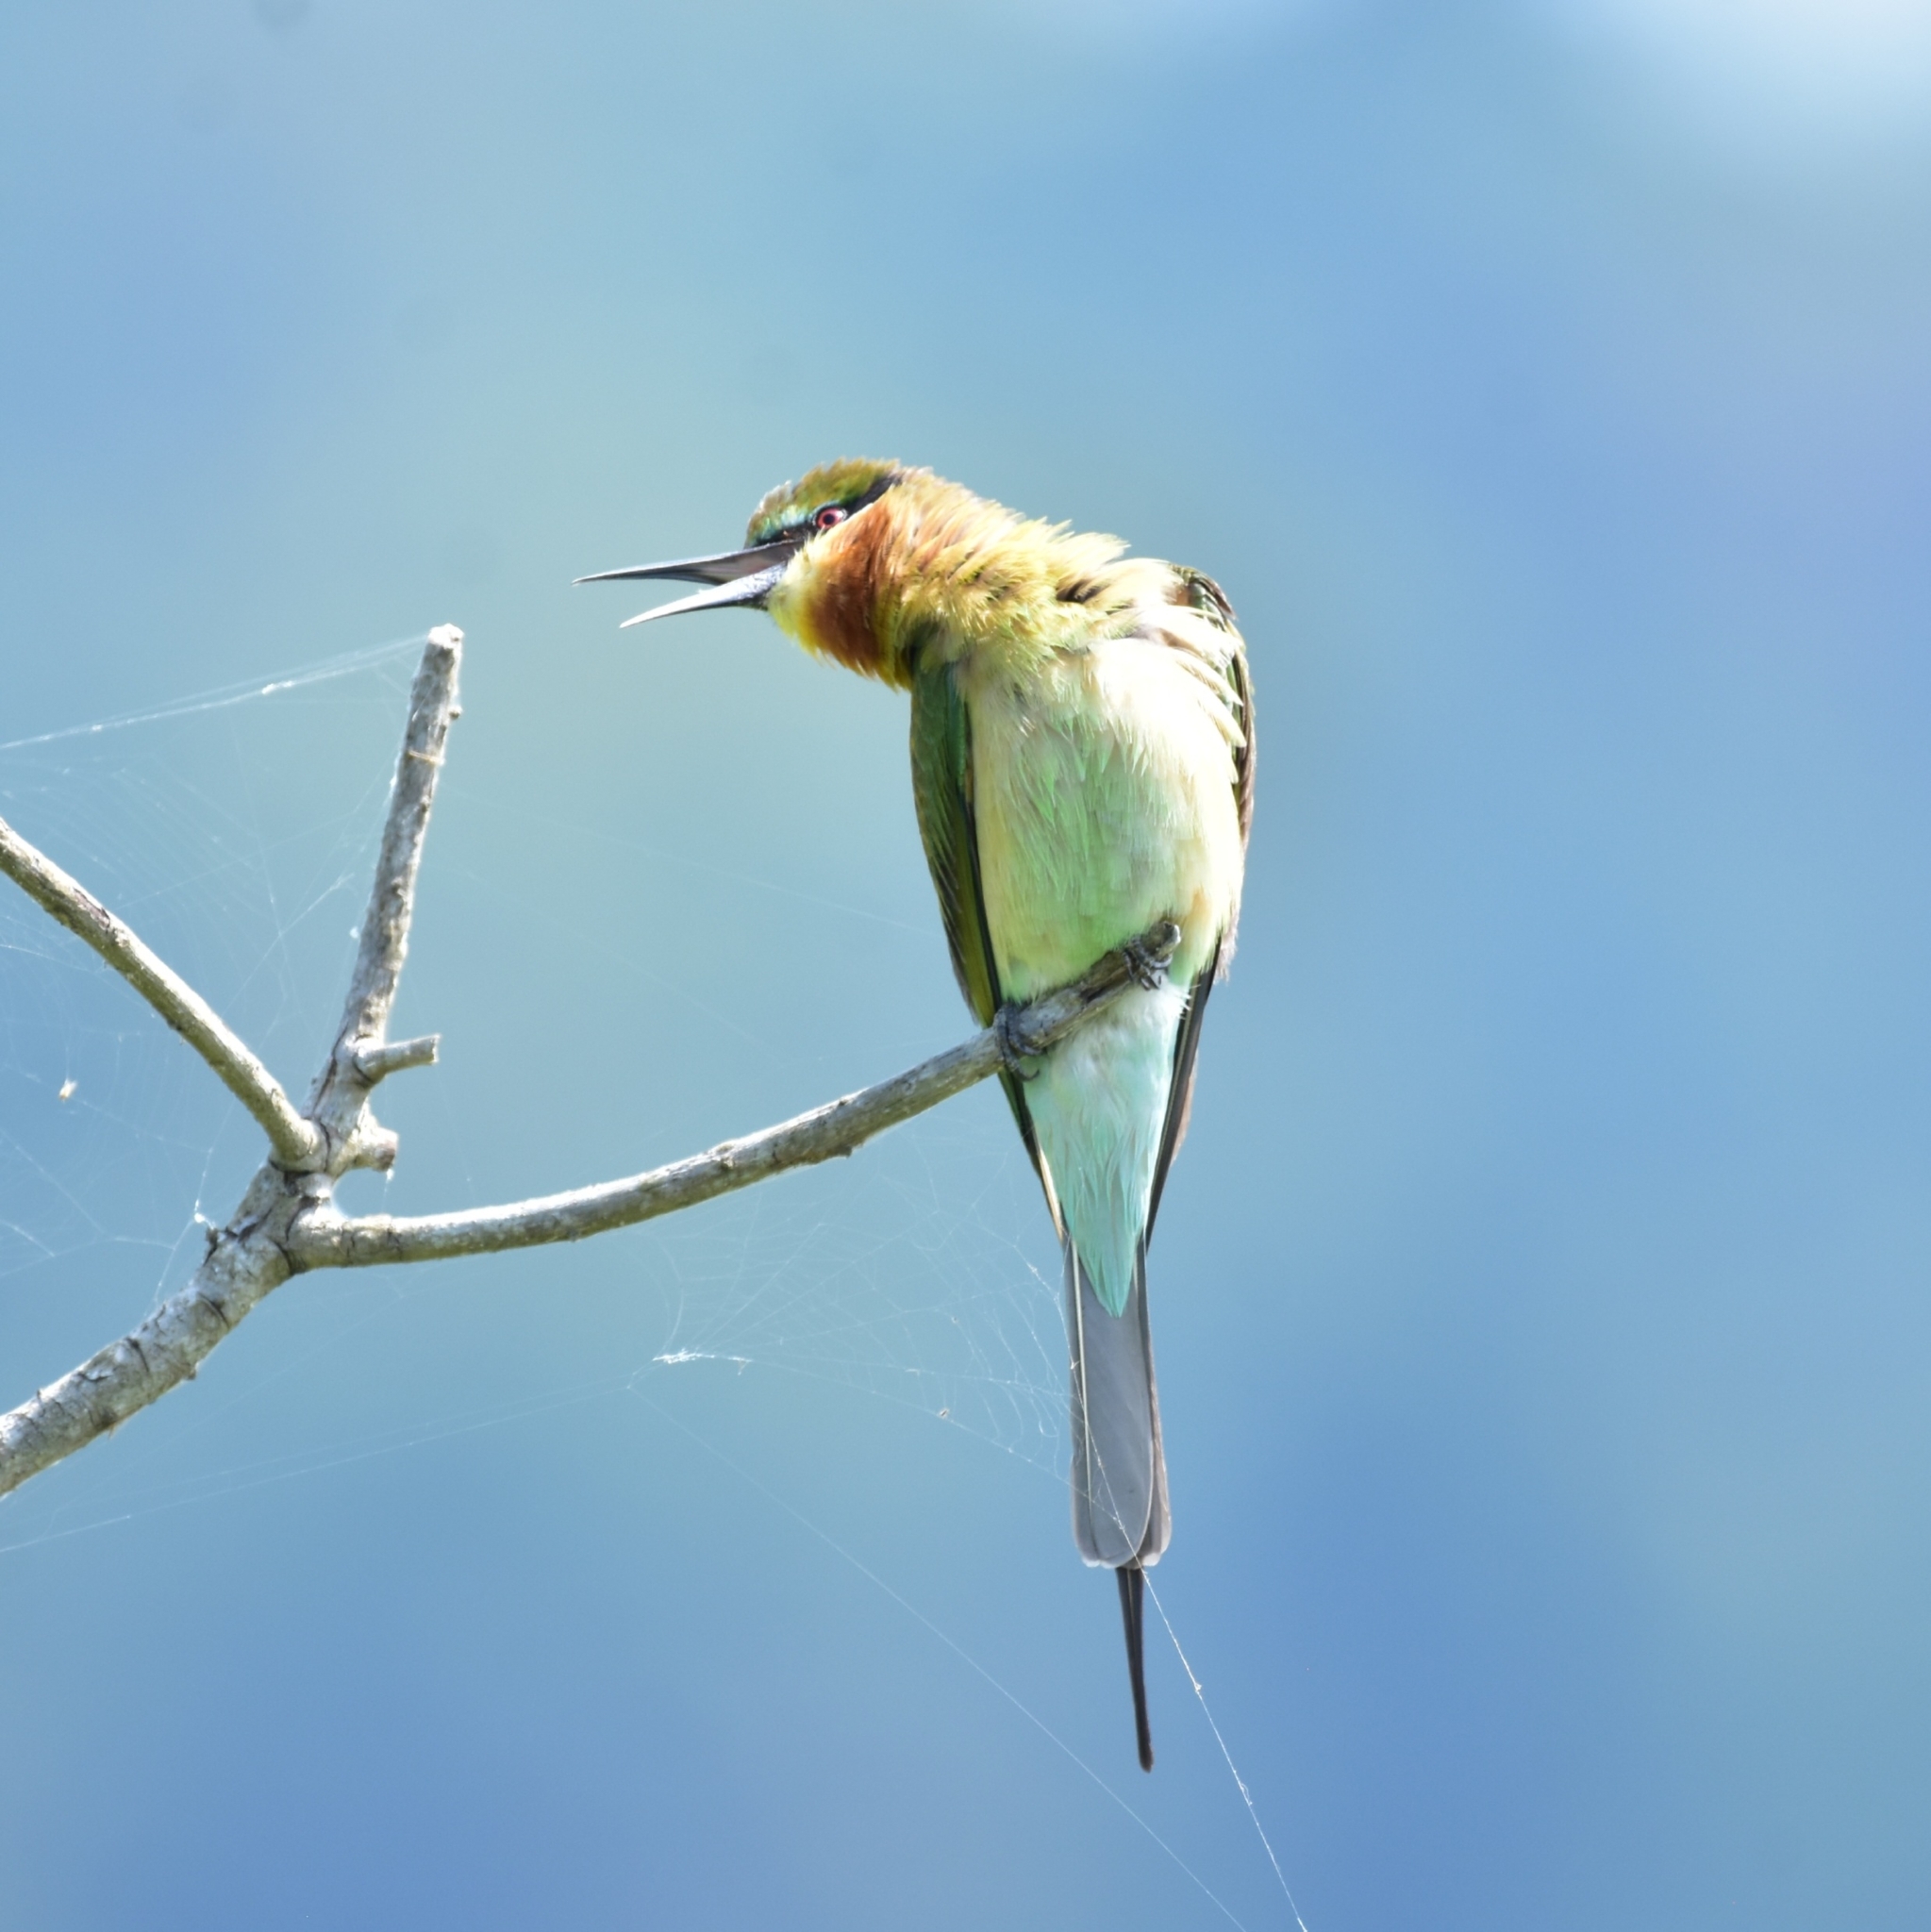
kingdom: Animalia
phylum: Chordata
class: Aves
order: Coraciiformes
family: Meropidae
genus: Merops
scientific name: Merops philippinus
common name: Blue-tailed bee-eater
